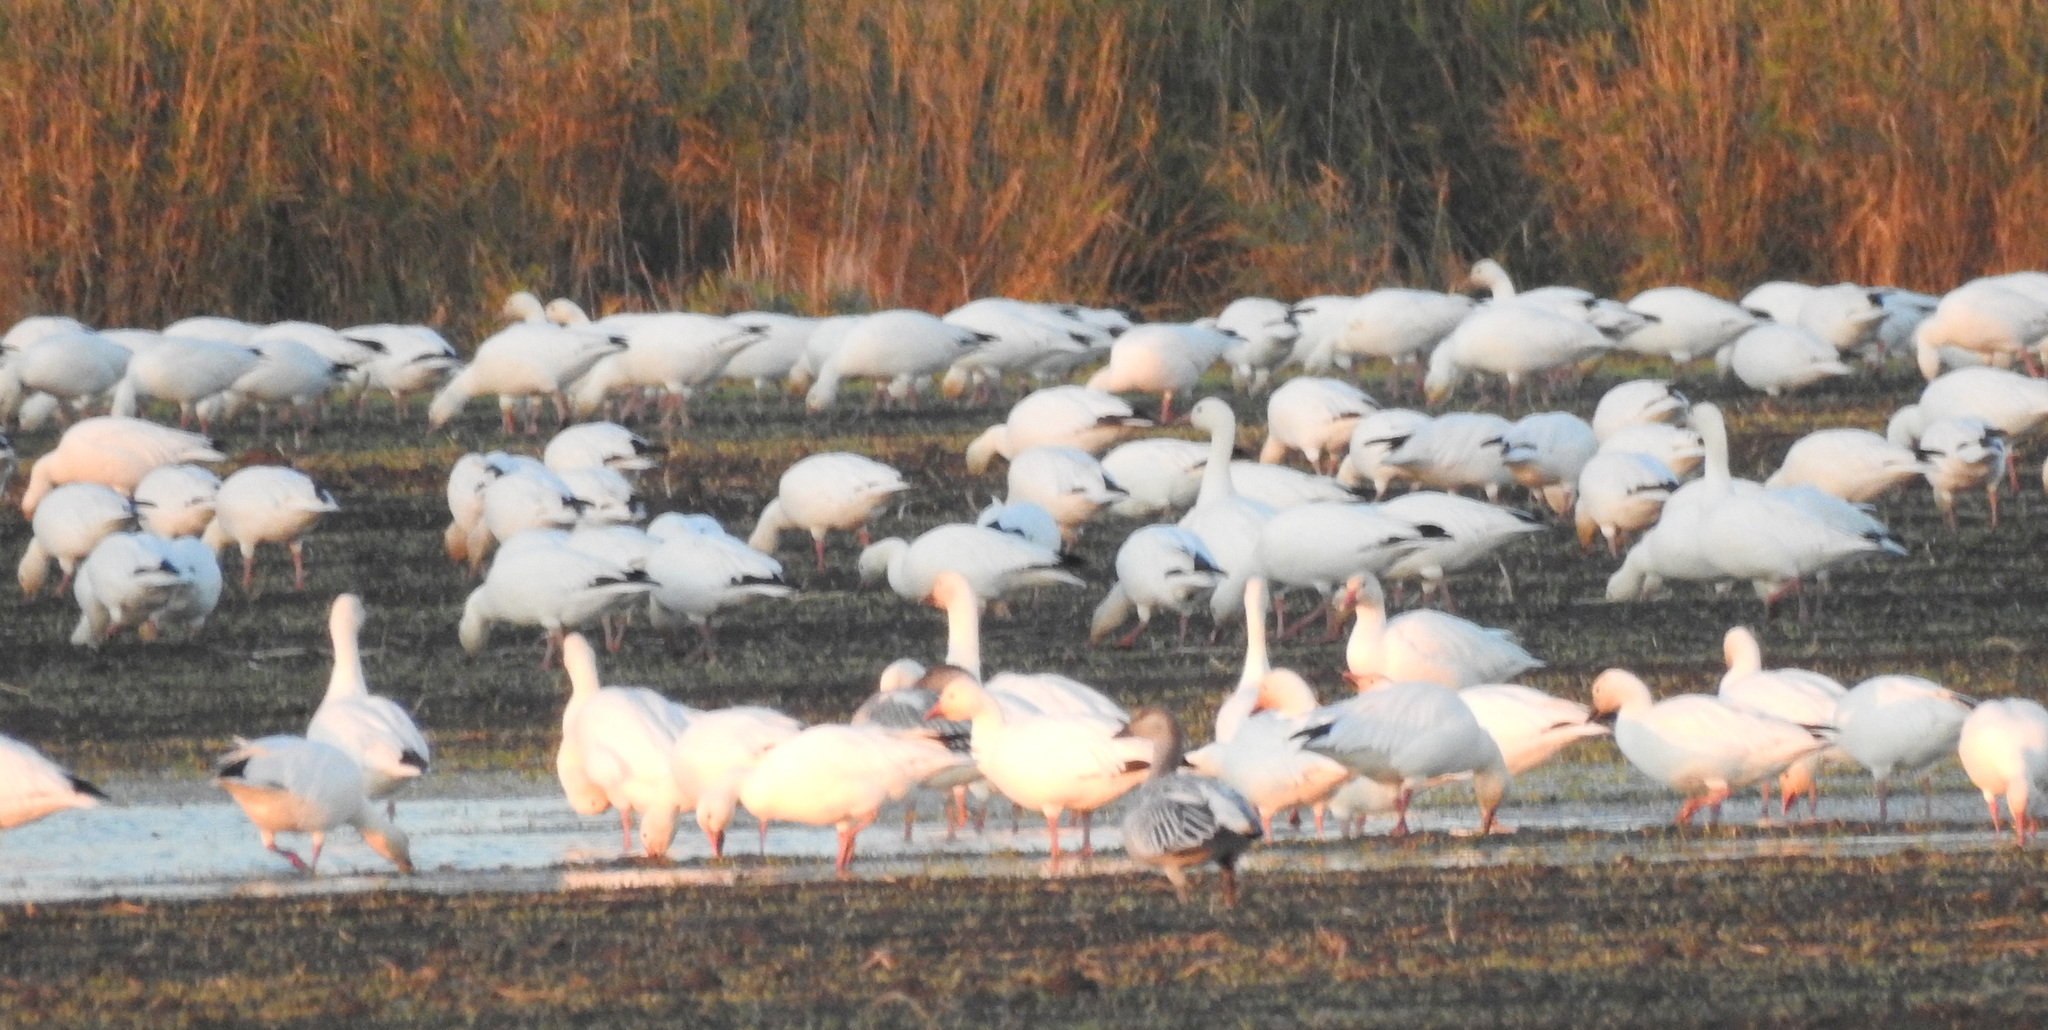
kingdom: Animalia
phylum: Chordata
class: Aves
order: Anseriformes
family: Anatidae
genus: Anser
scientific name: Anser caerulescens
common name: Snow goose
